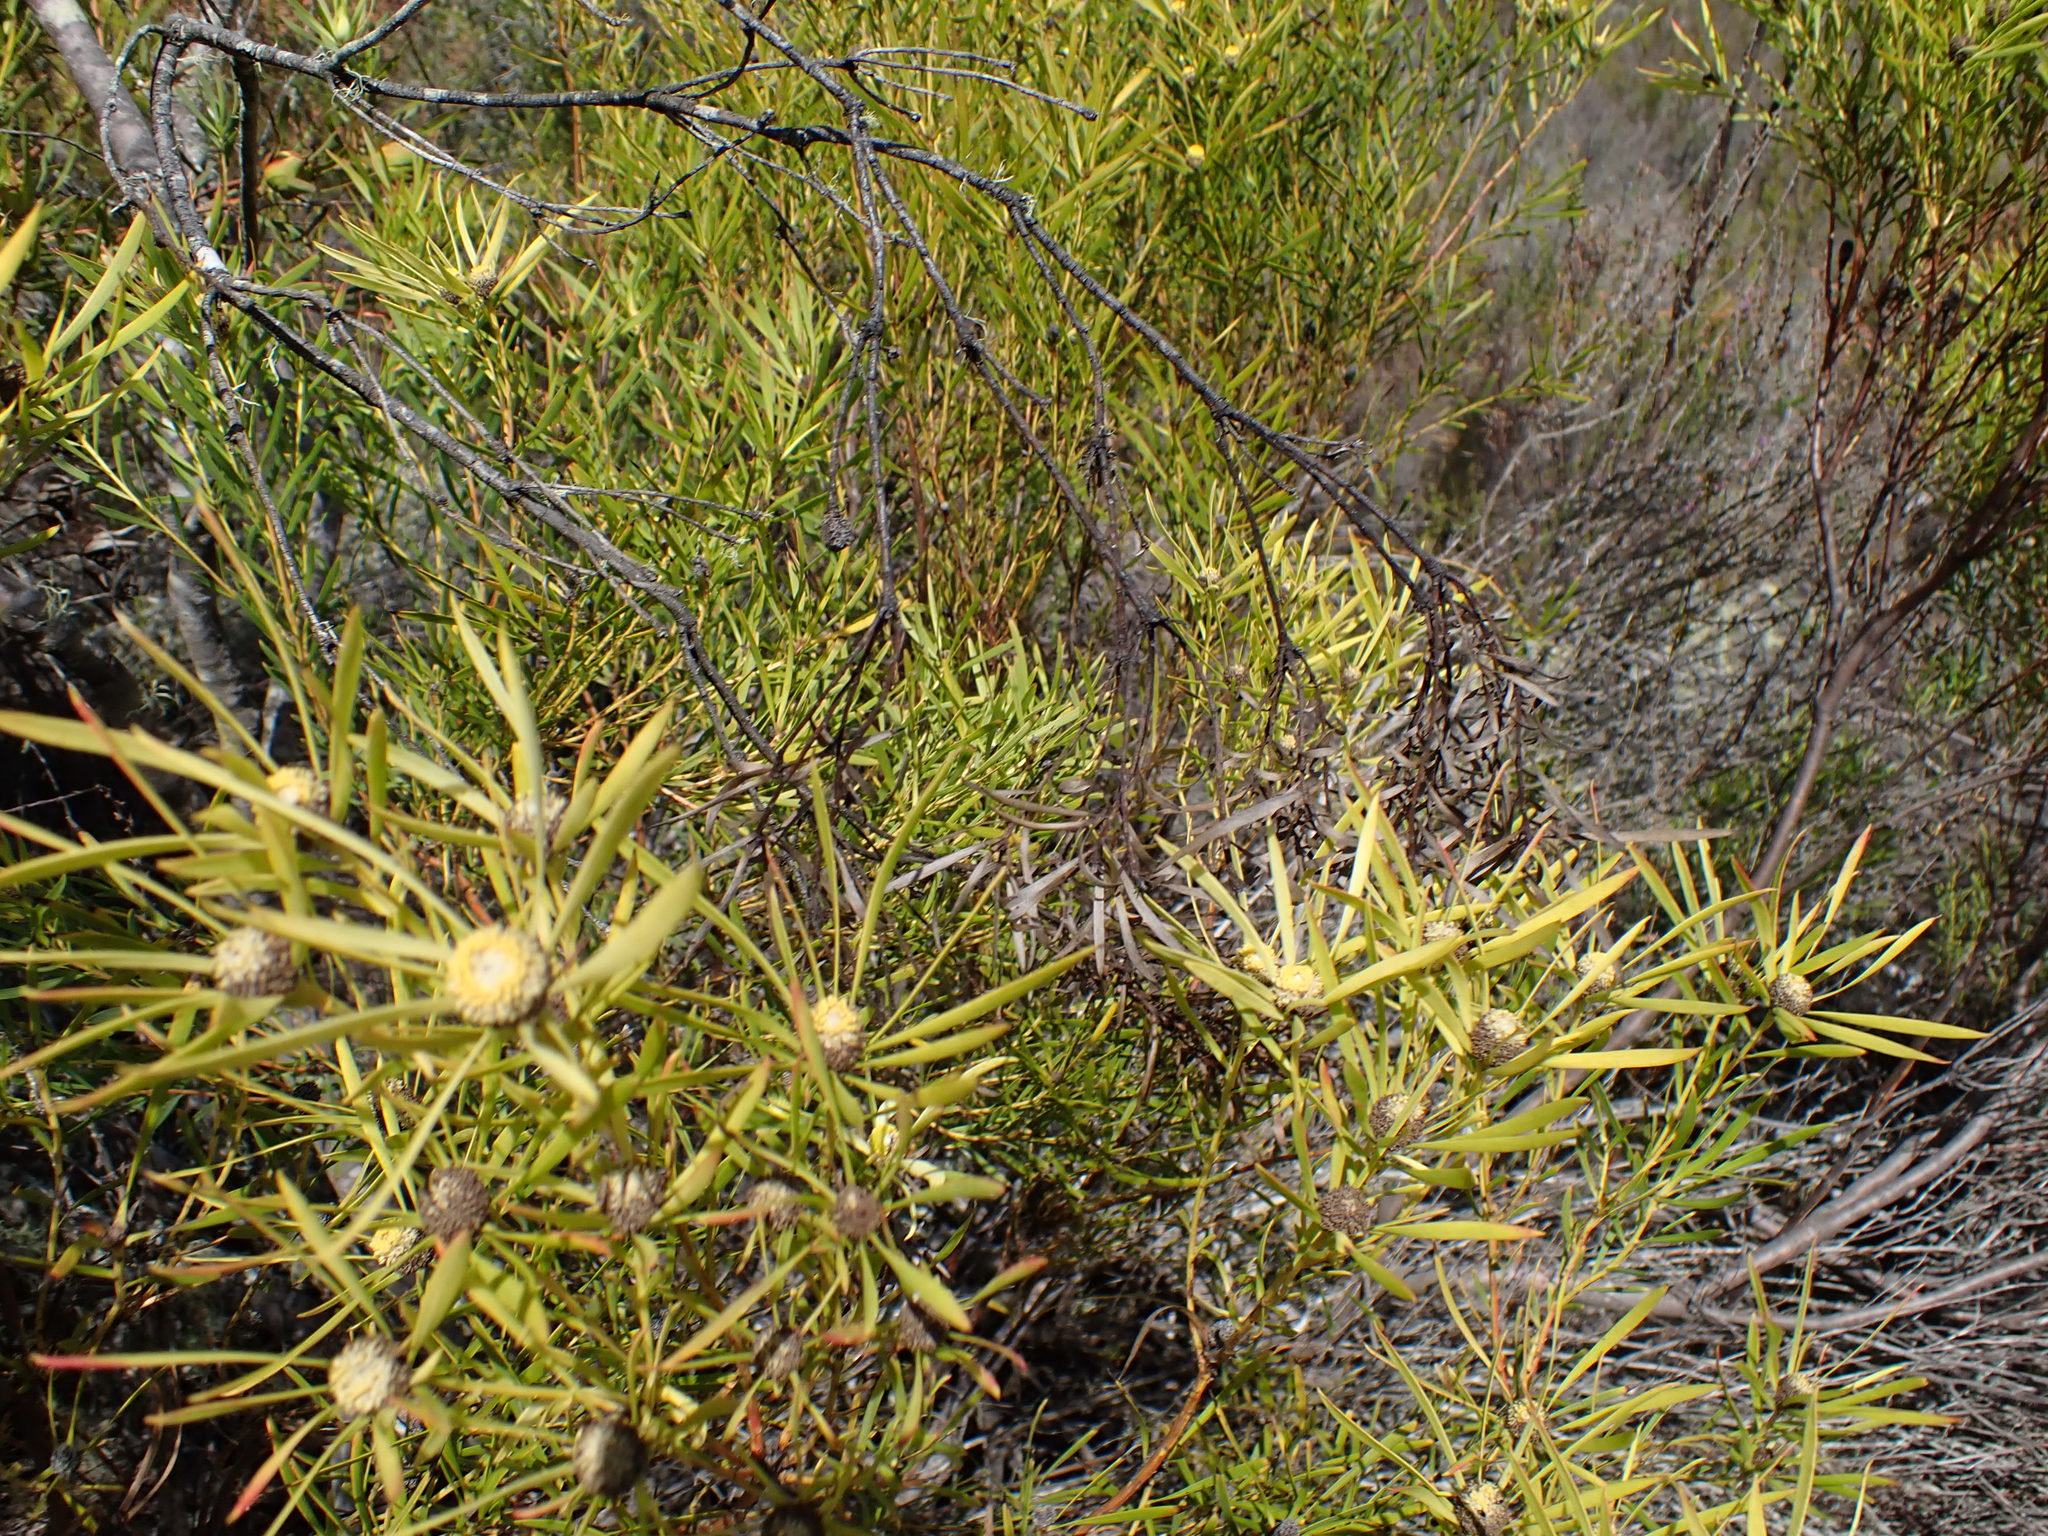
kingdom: Plantae
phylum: Tracheophyta
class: Magnoliopsida
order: Proteales
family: Proteaceae
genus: Leucadendron
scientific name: Leucadendron salignum
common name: Common sunshine conebush
